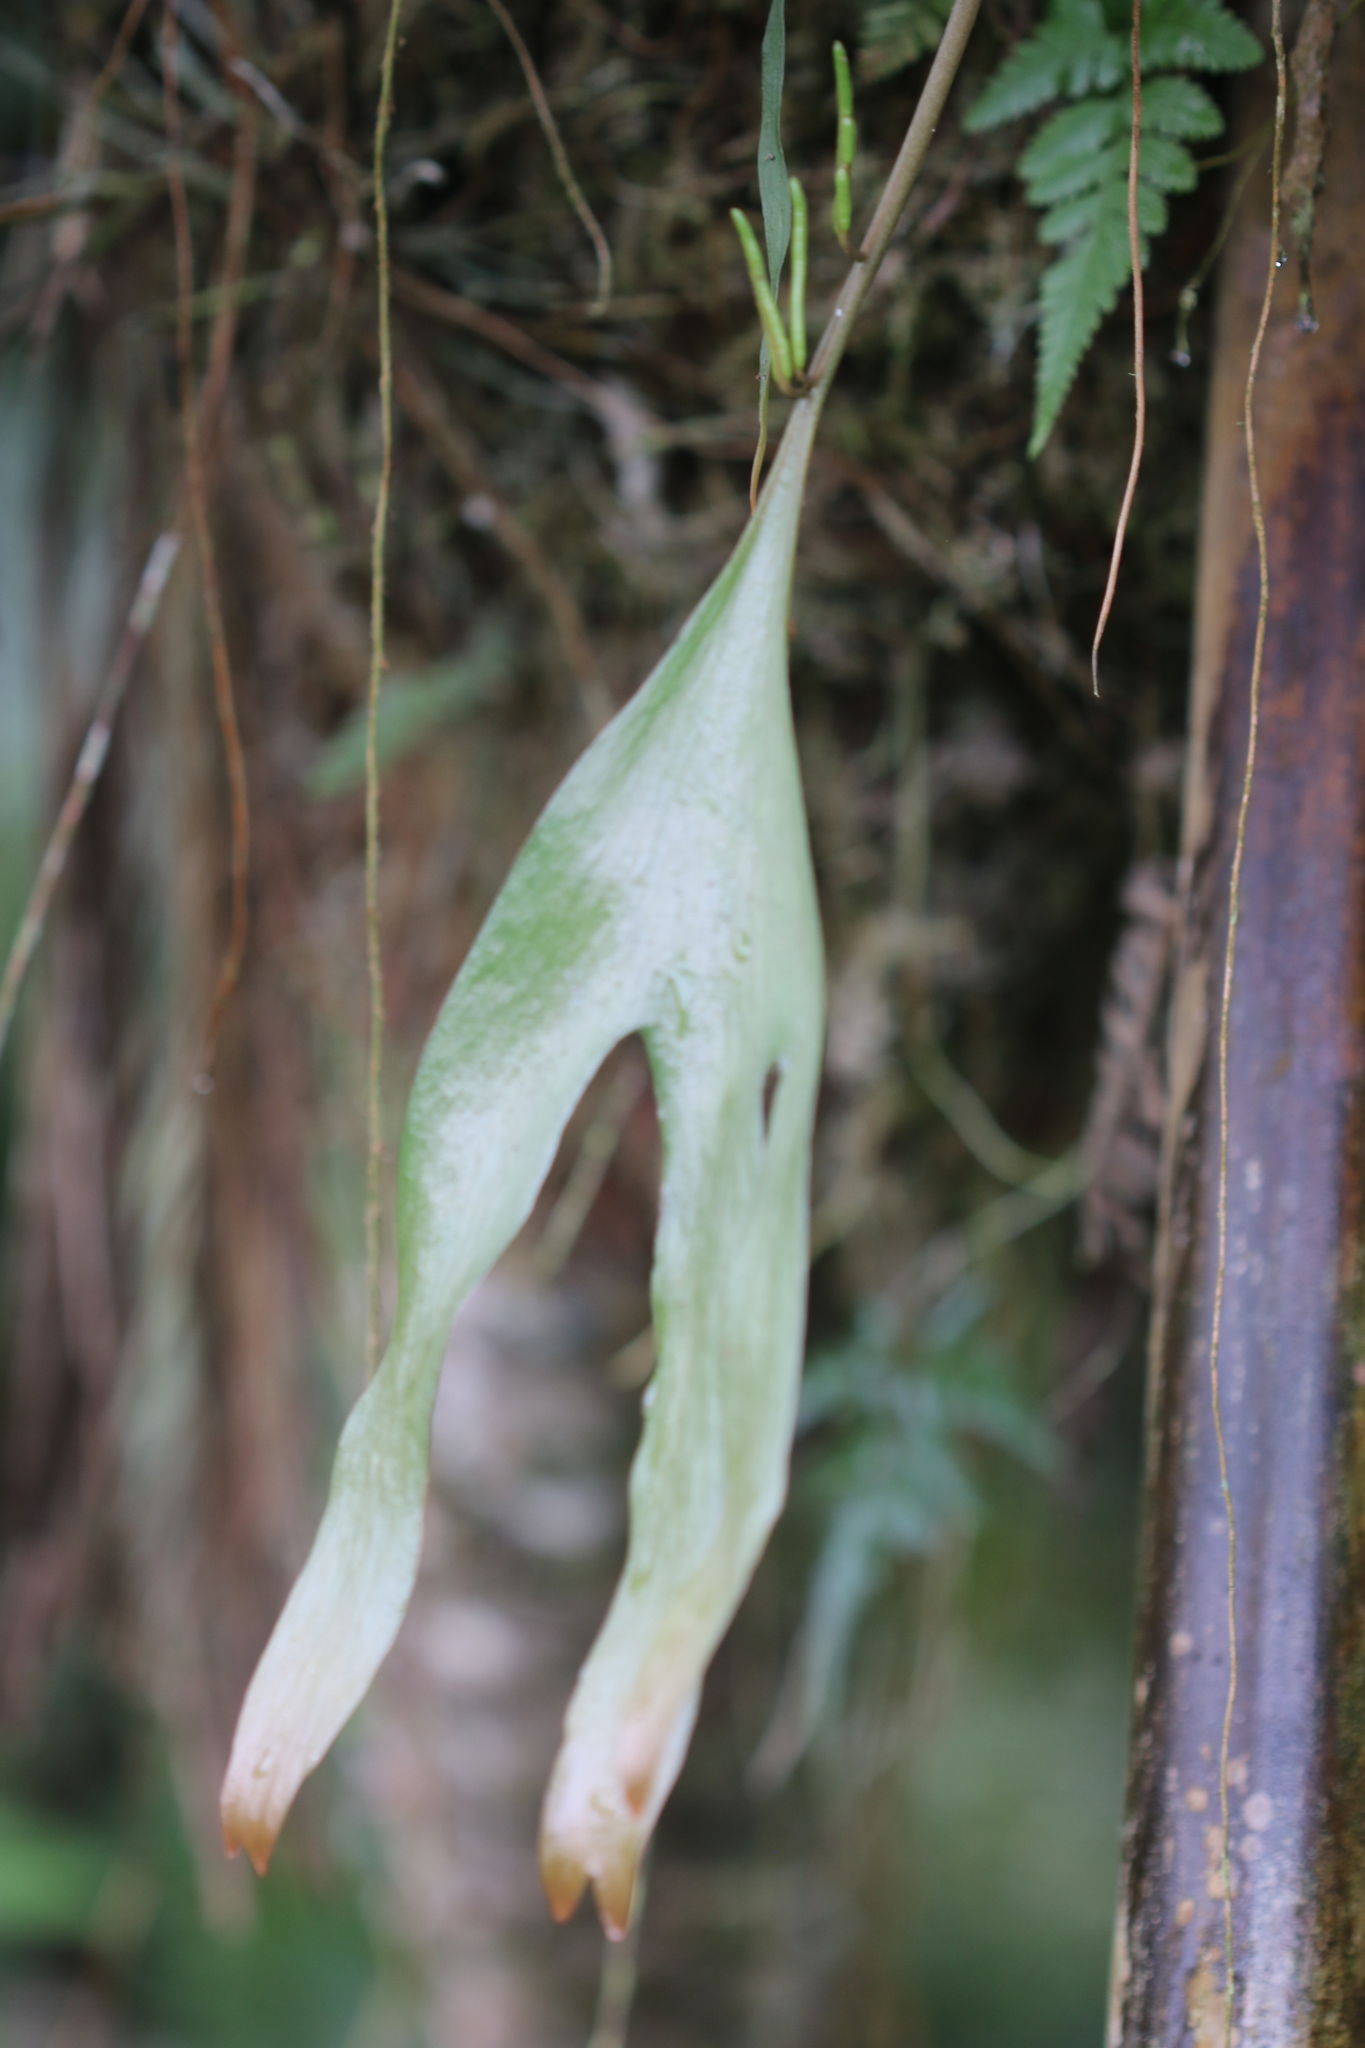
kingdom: Plantae
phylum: Tracheophyta
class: Polypodiopsida
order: Ophioglossales
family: Ophioglossaceae
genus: Cheiroglossa
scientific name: Cheiroglossa palmata
